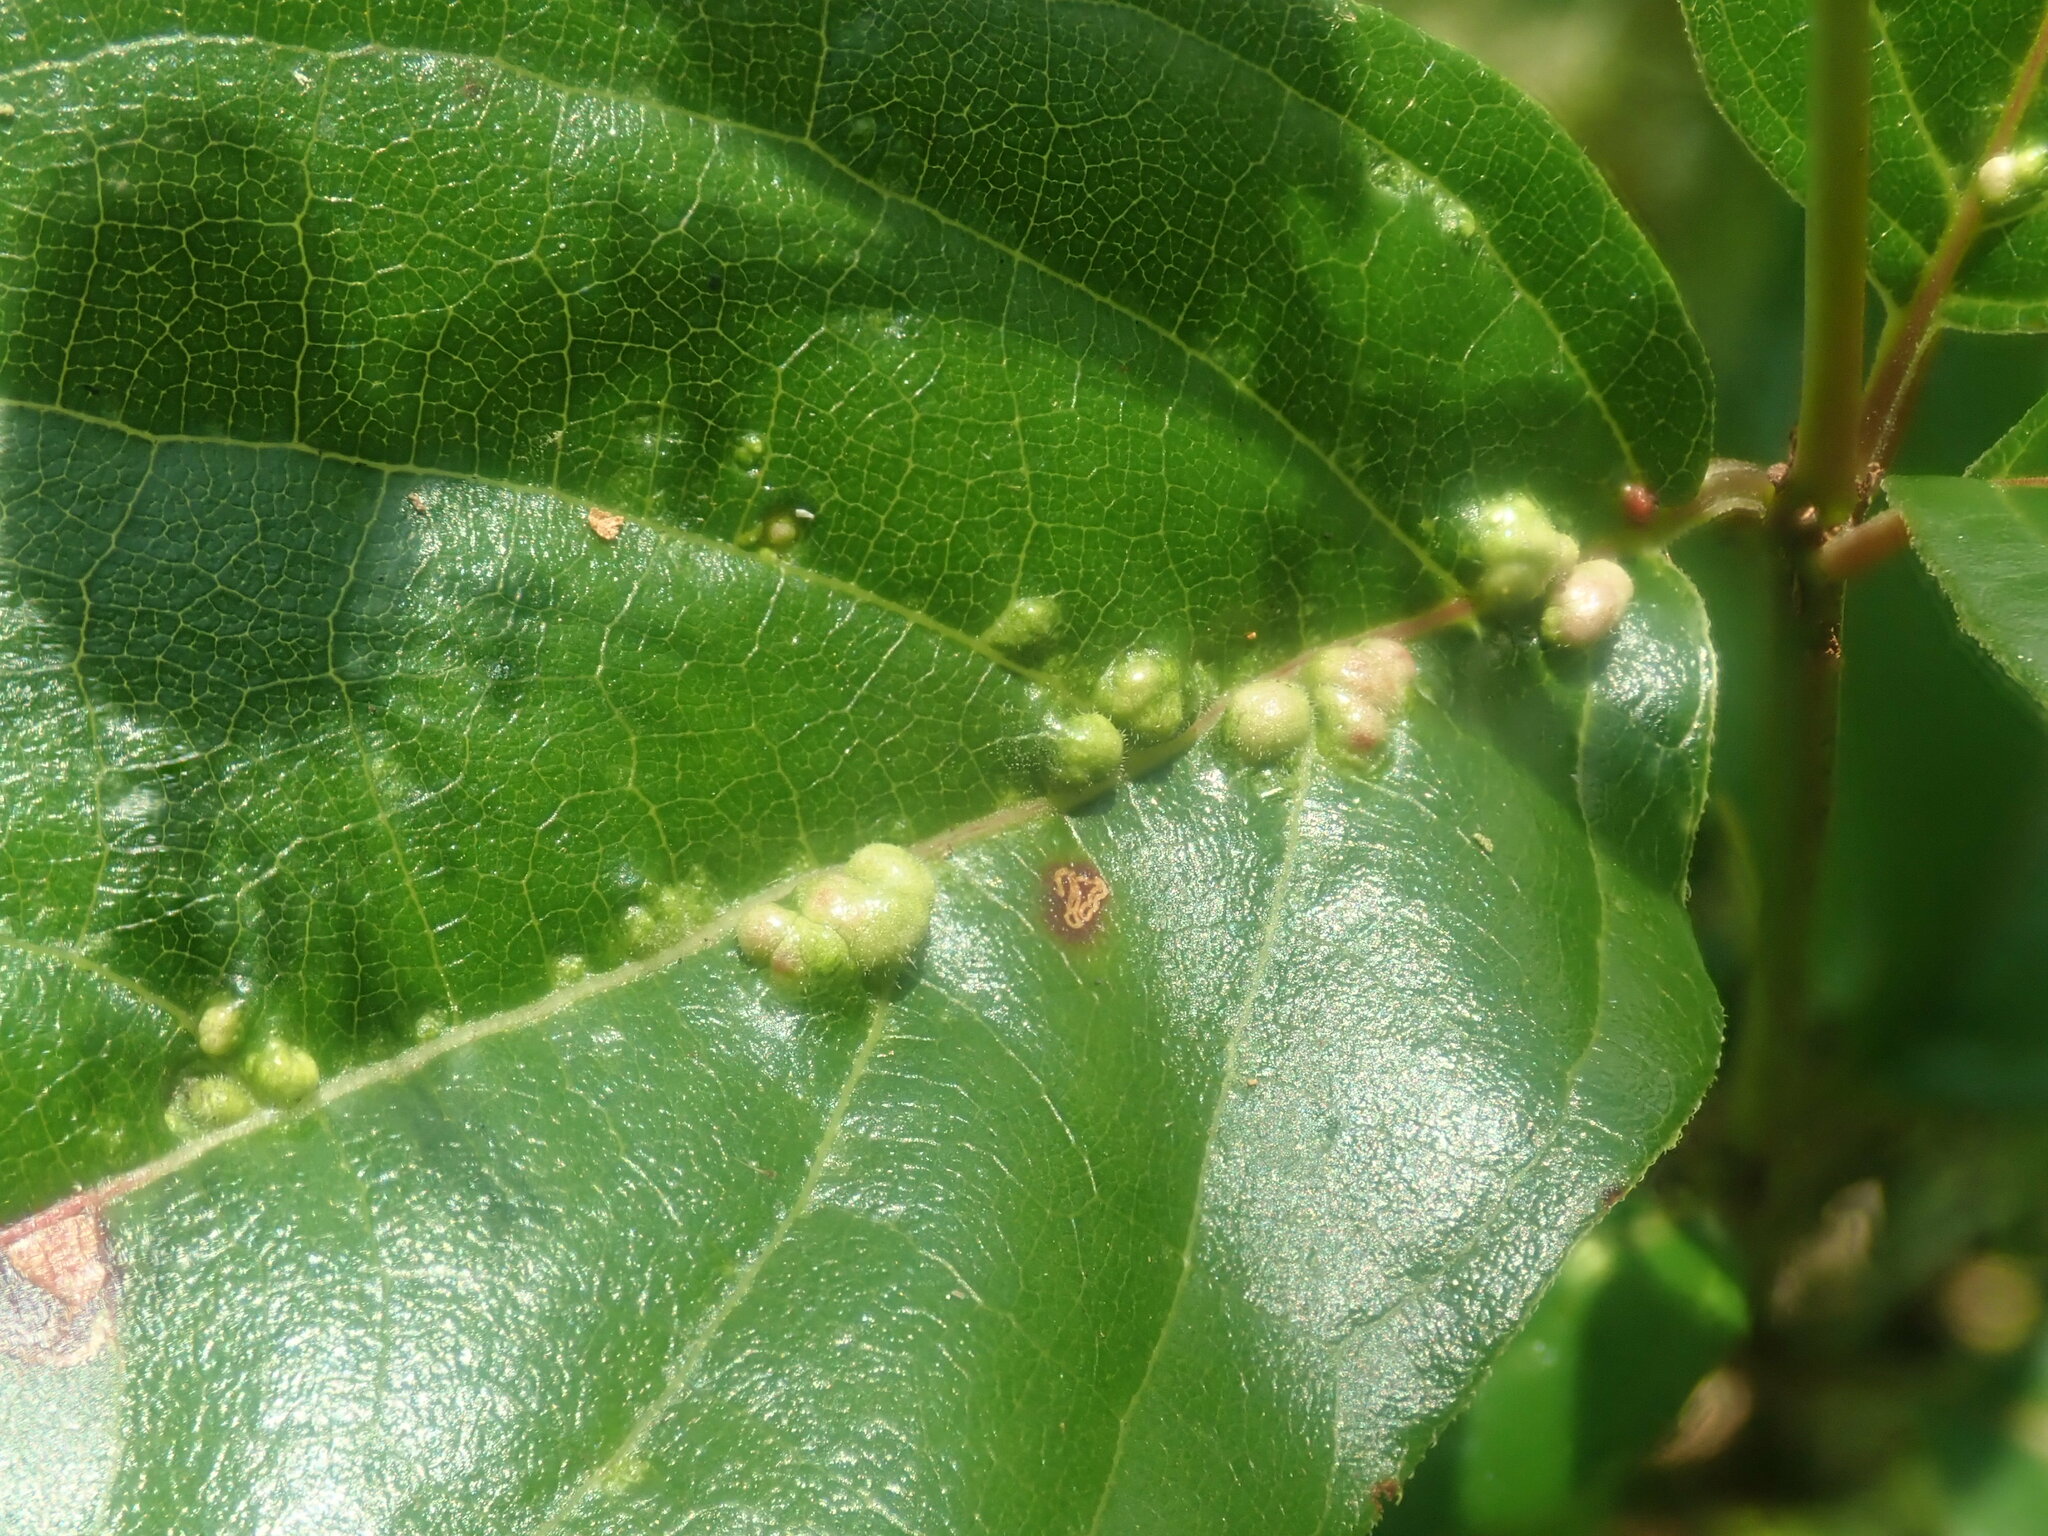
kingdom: Animalia
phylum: Arthropoda
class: Arachnida
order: Trombidiformes
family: Eriophyidae
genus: Aceria
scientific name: Aceria
